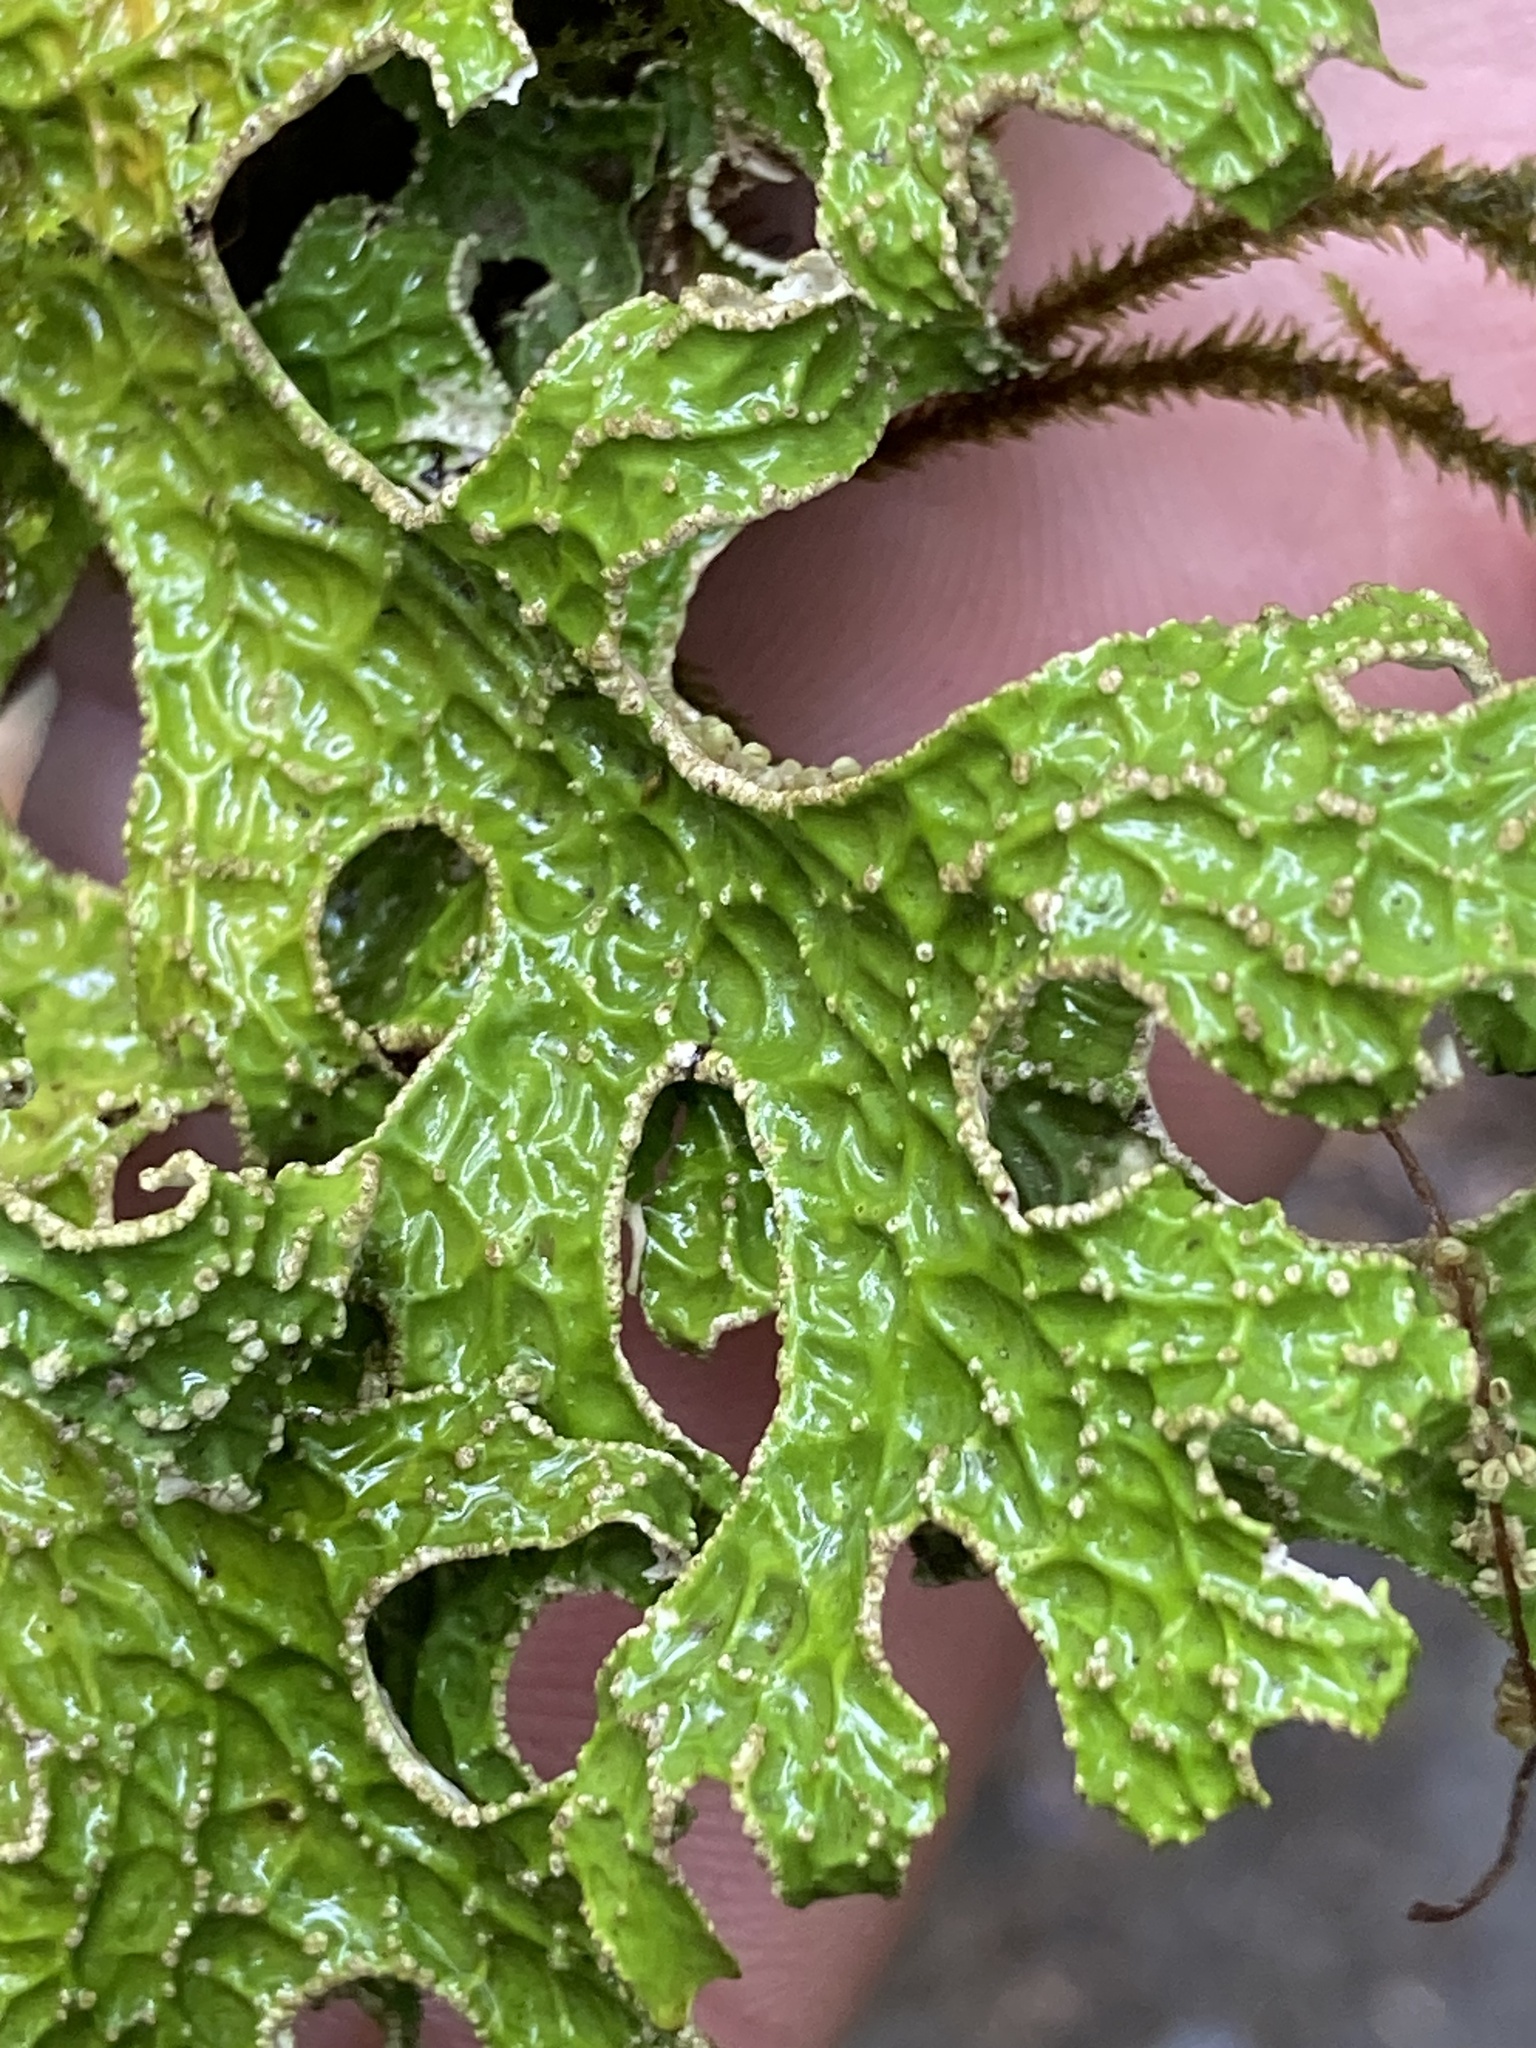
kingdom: Fungi
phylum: Ascomycota
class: Lecanoromycetes
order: Peltigerales
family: Lobariaceae
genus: Lobaria
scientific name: Lobaria pulmonaria
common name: Lungwort
